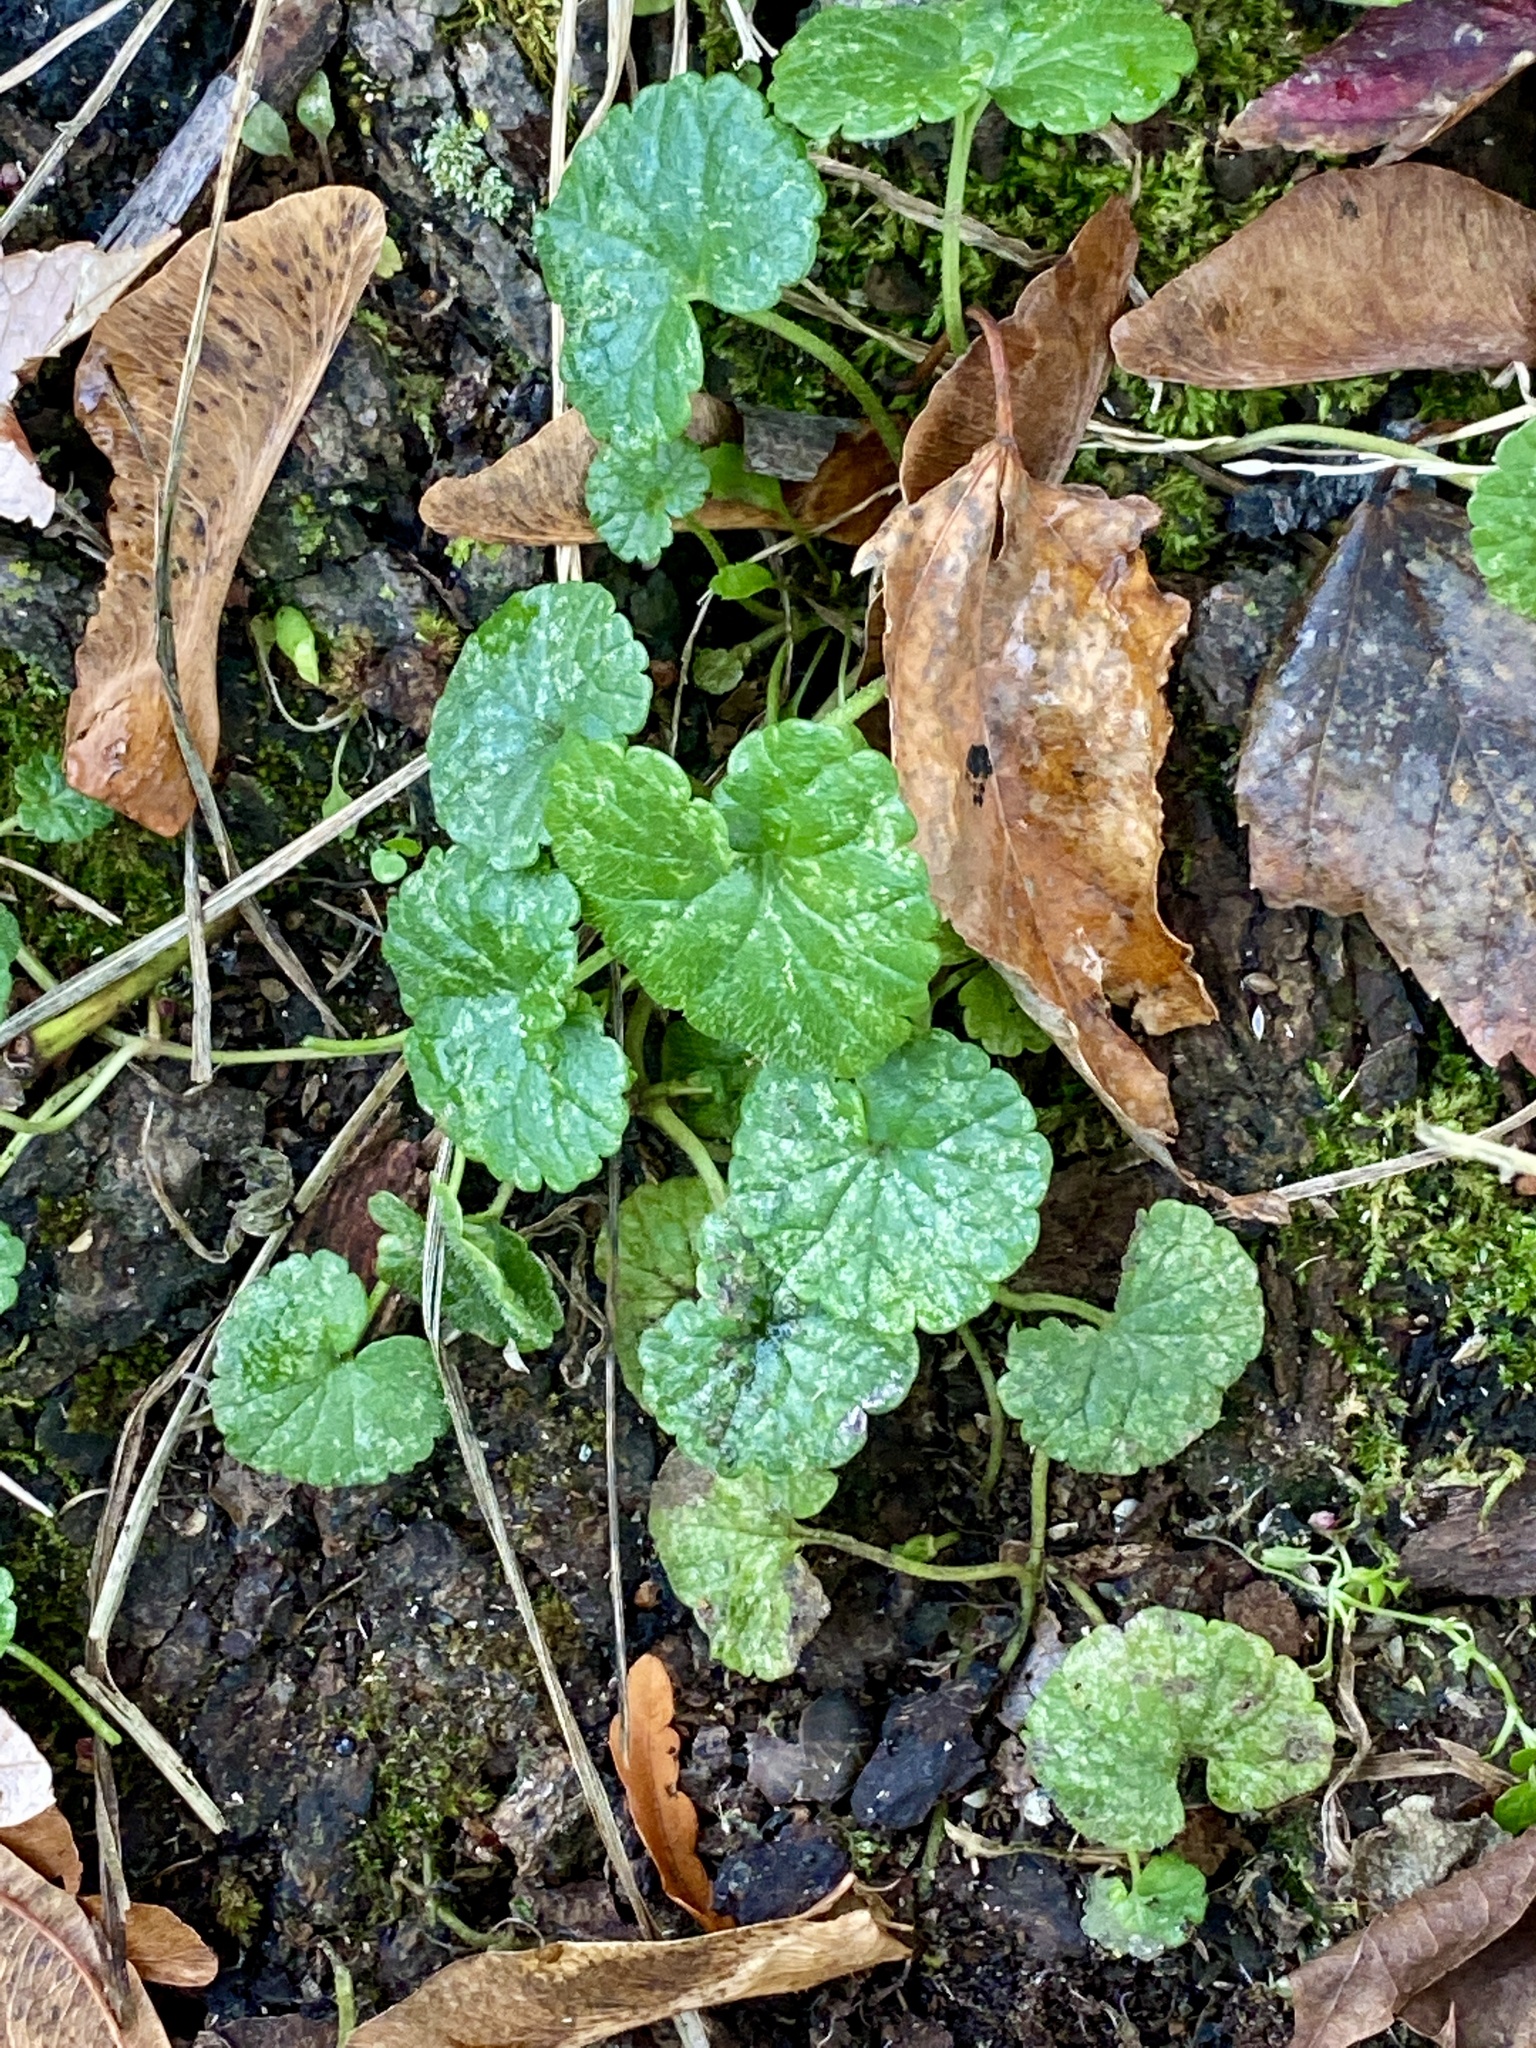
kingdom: Plantae
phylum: Tracheophyta
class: Magnoliopsida
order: Lamiales
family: Lamiaceae
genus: Glechoma
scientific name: Glechoma hederacea
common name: Ground ivy
